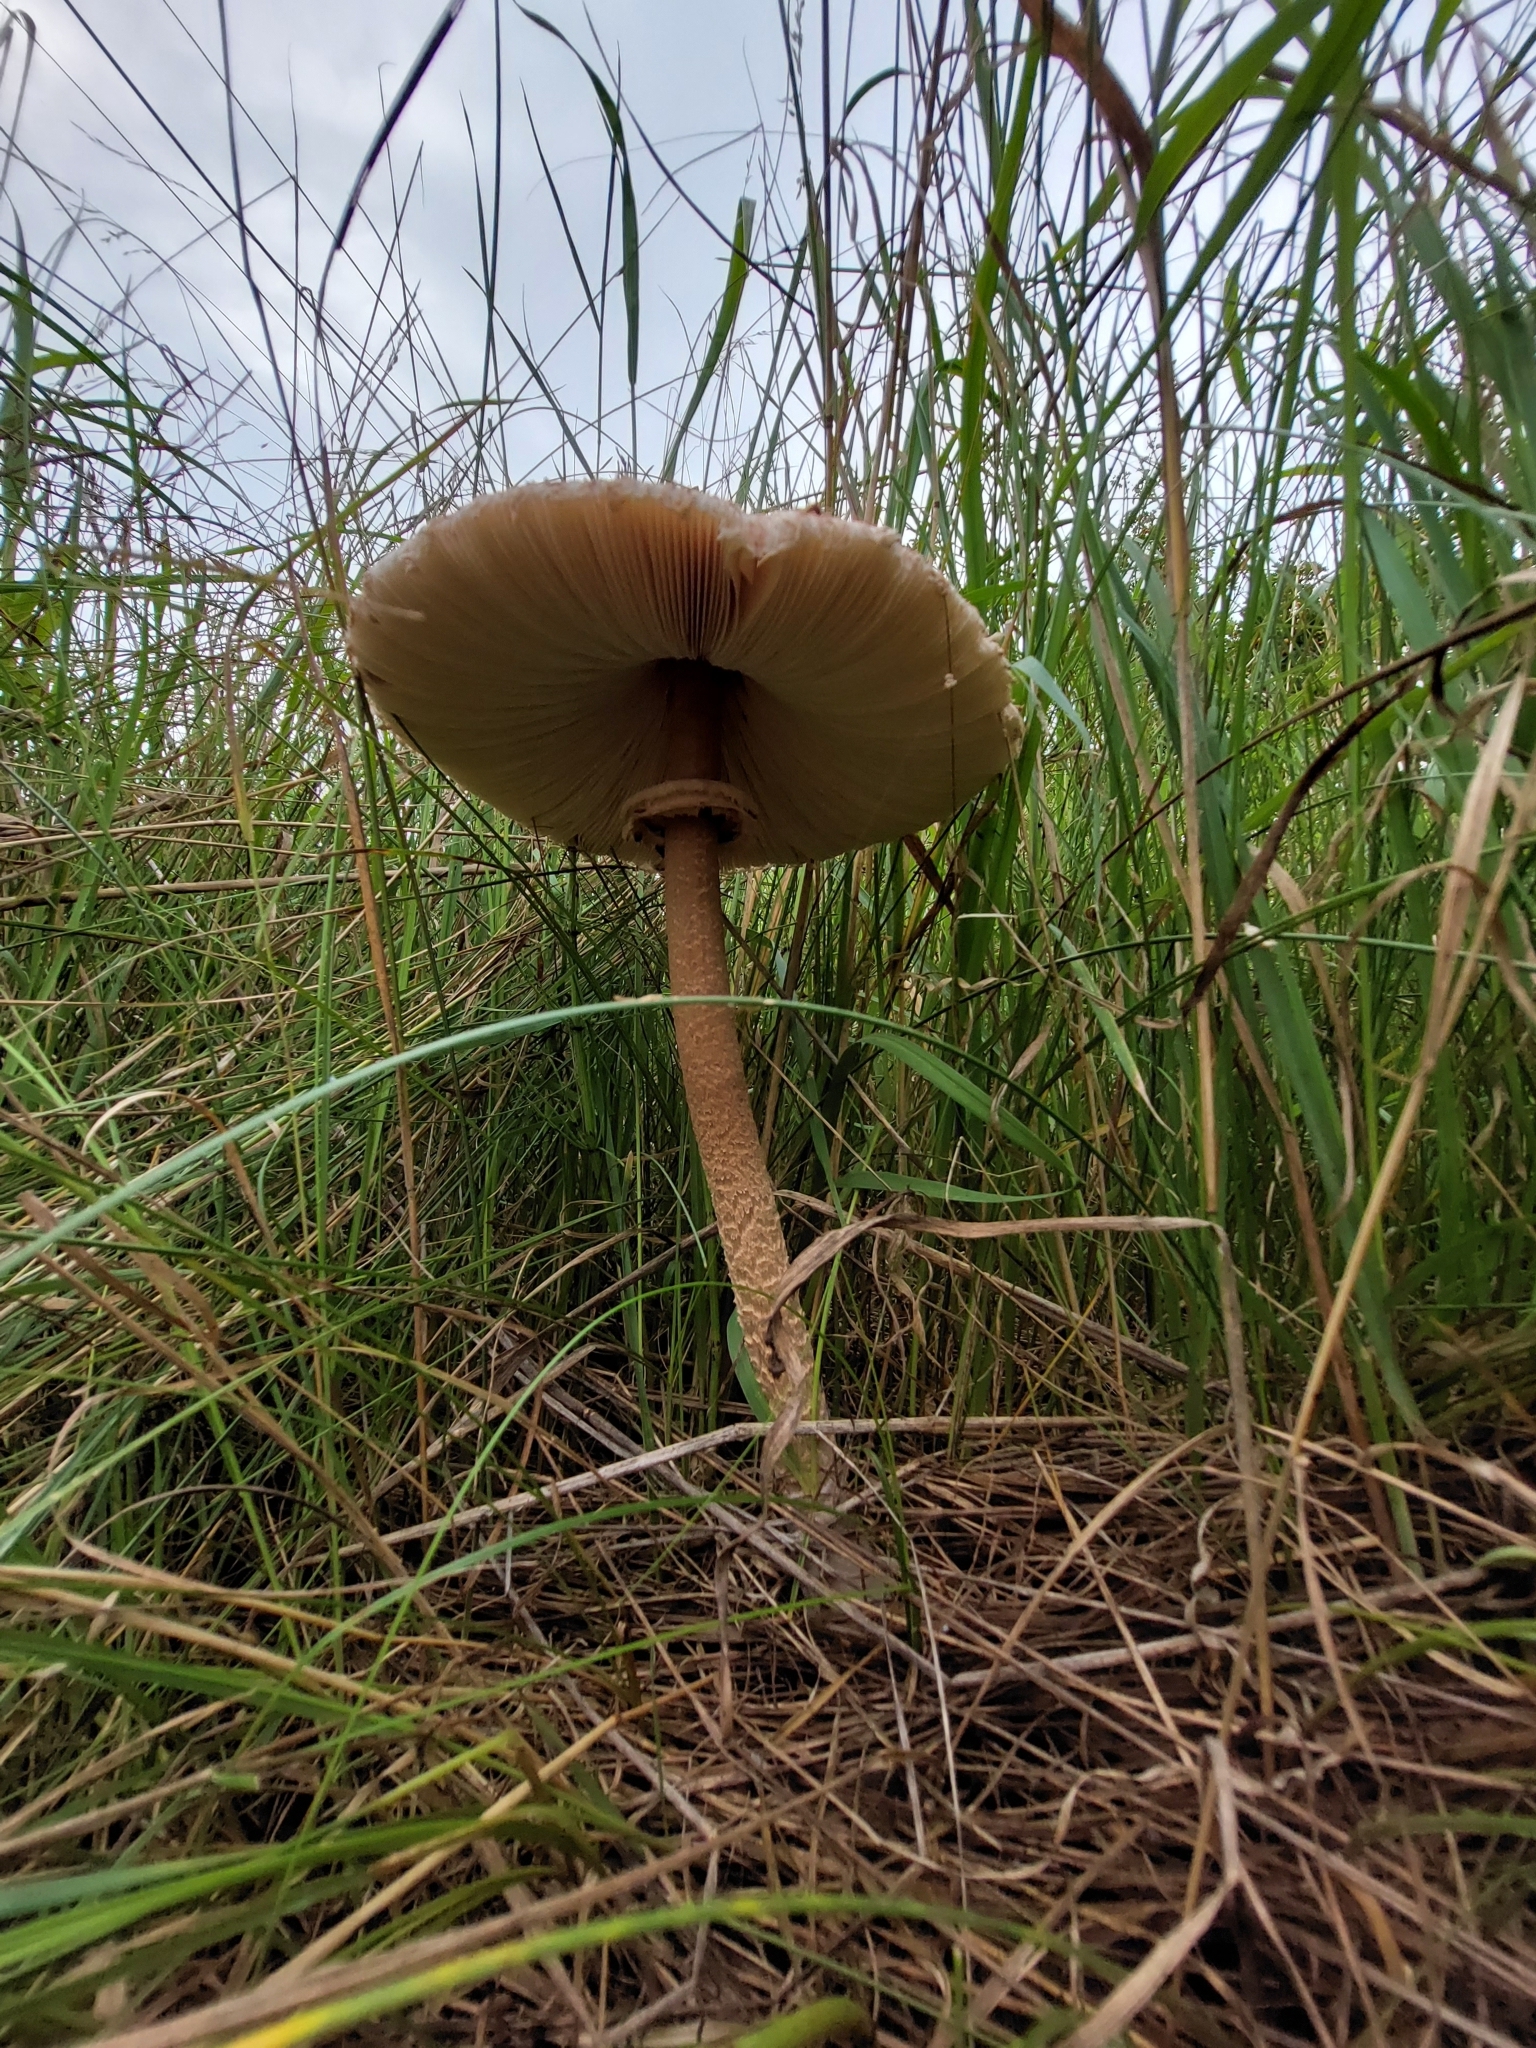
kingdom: Fungi
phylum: Basidiomycota
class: Agaricomycetes
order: Agaricales
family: Agaricaceae
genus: Macrolepiota
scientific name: Macrolepiota procera
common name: Parasol
